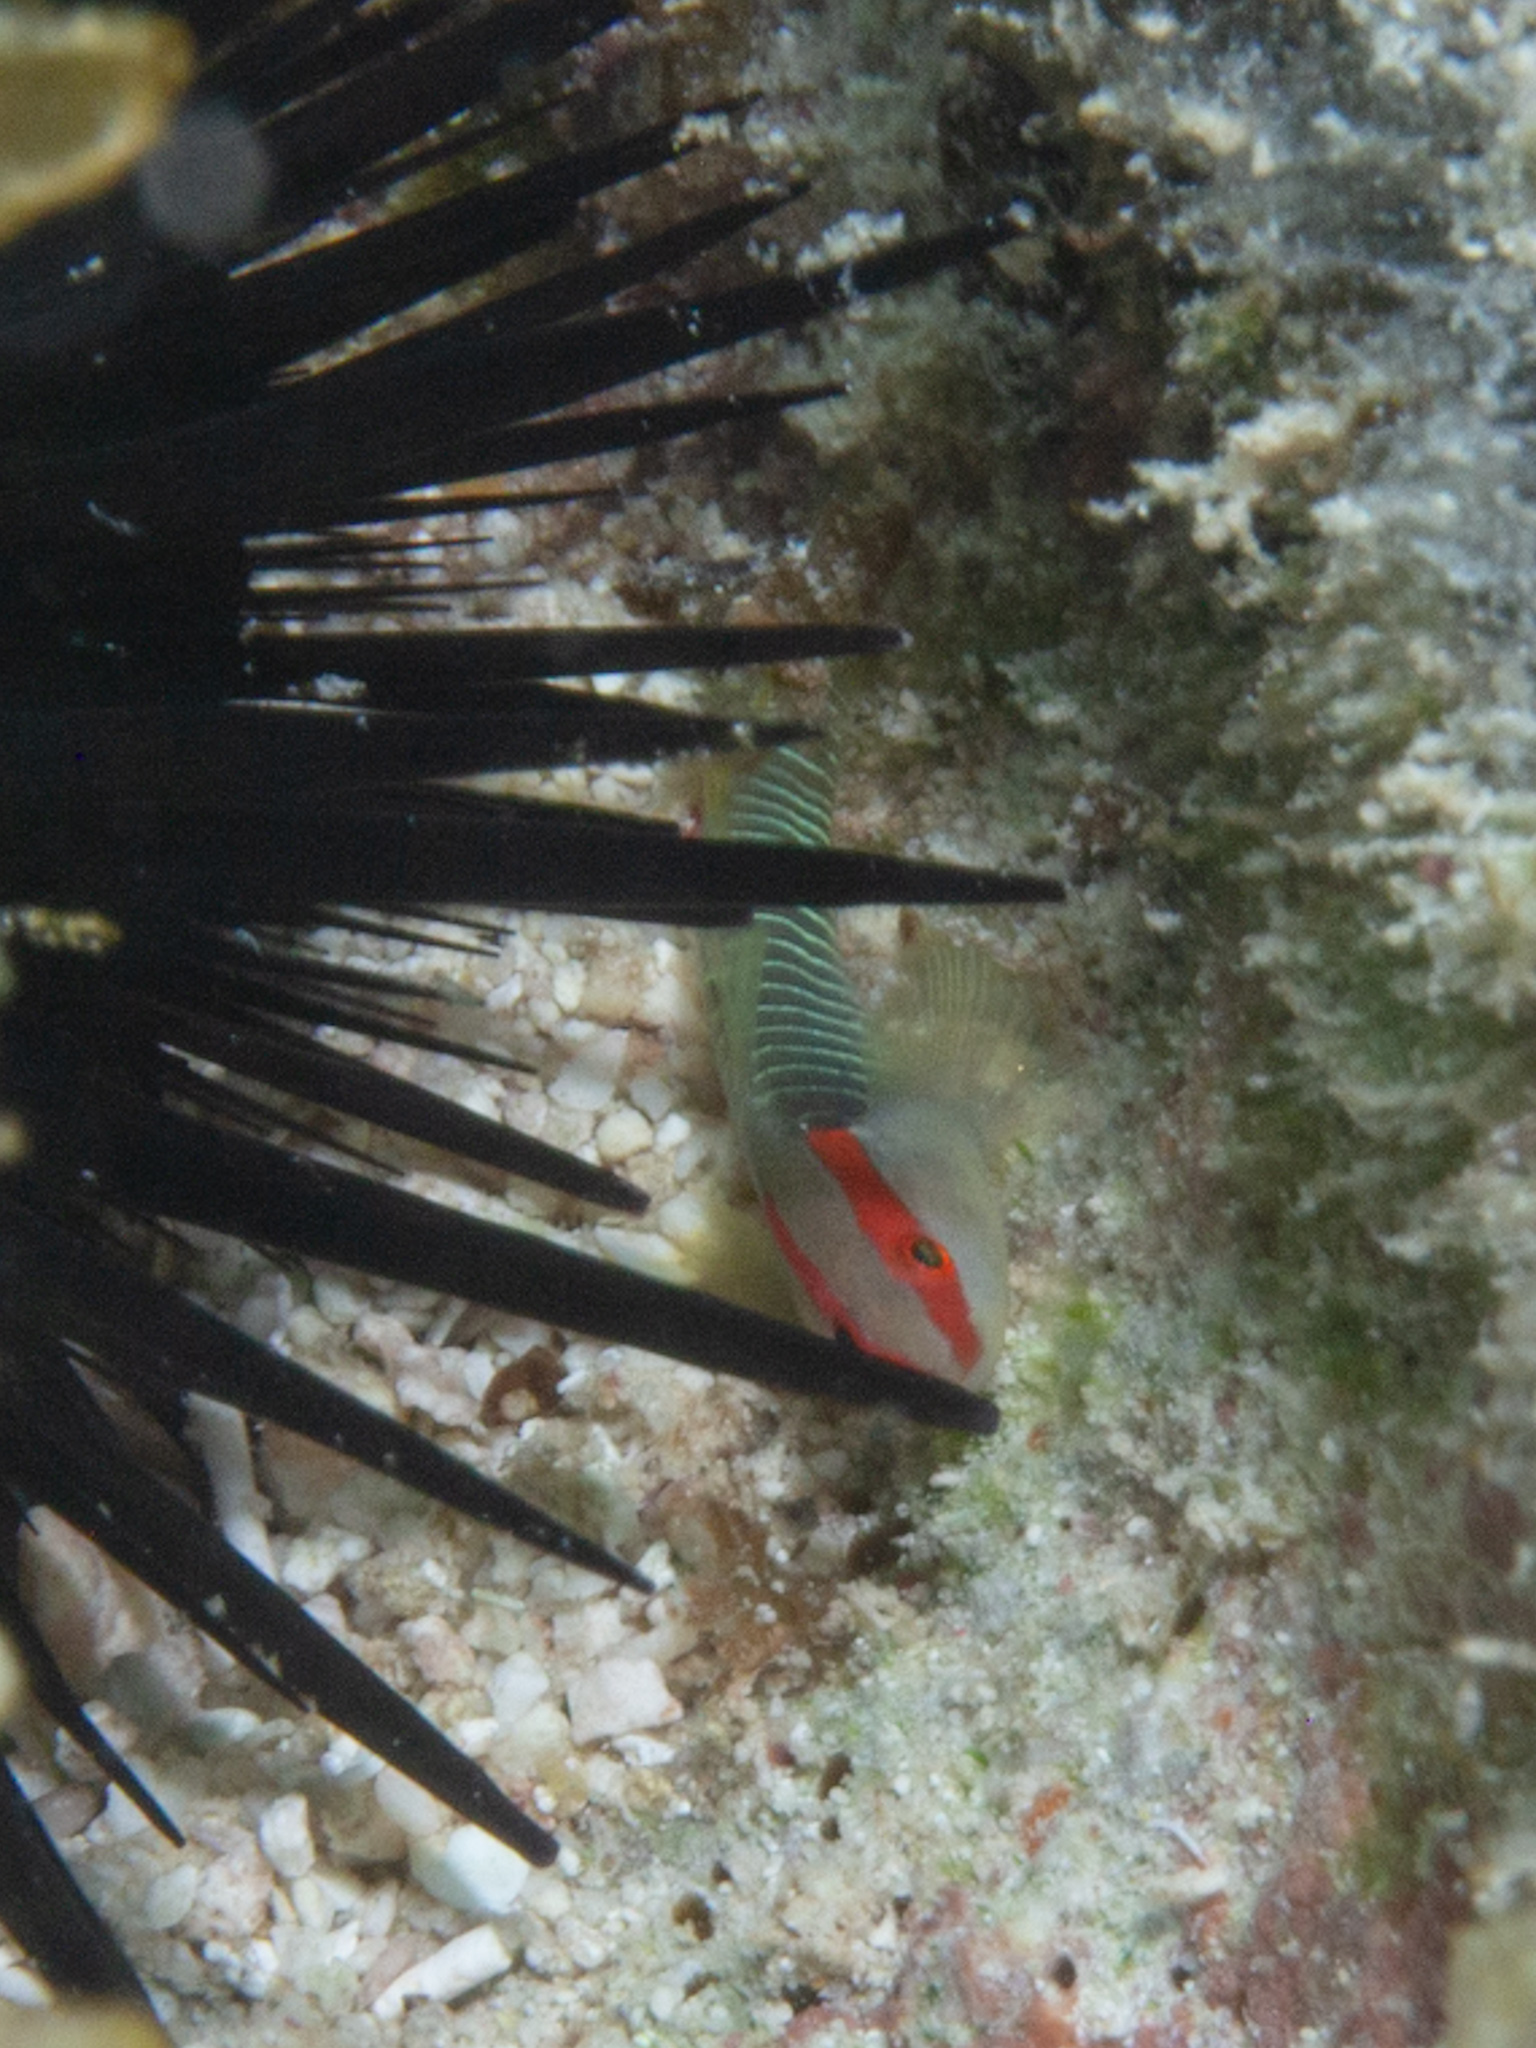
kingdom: Animalia
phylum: Chordata
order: Perciformes
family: Gobiidae
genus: Tigrigobius
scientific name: Tigrigobius harveyi
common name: Cayman greenbanded goby
